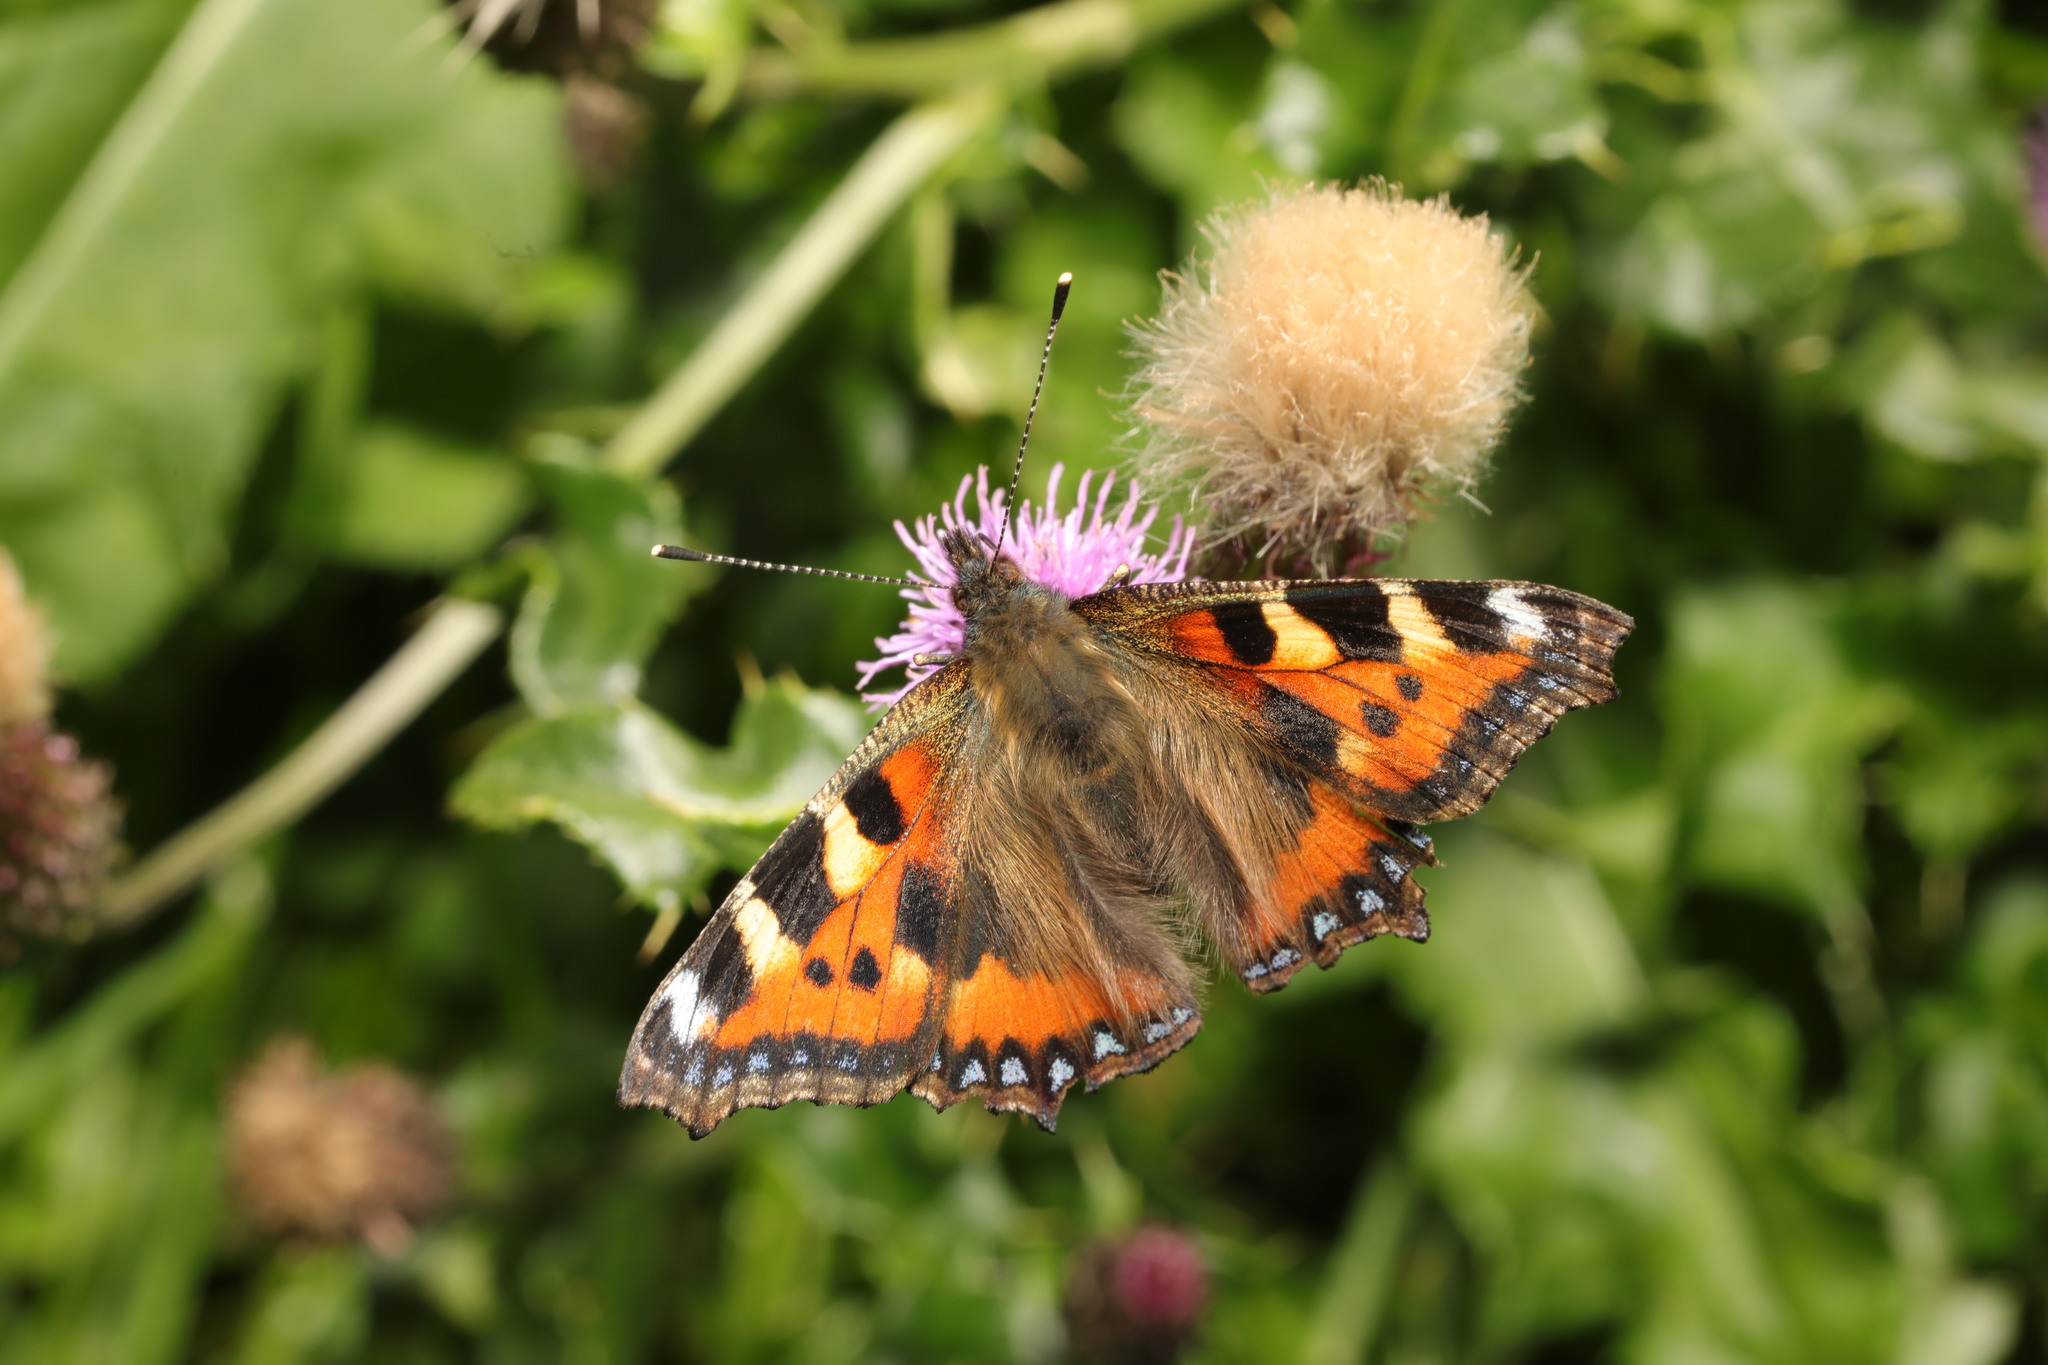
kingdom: Animalia
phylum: Arthropoda
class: Insecta
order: Lepidoptera
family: Nymphalidae
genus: Aglais
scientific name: Aglais urticae
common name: Small tortoiseshell
